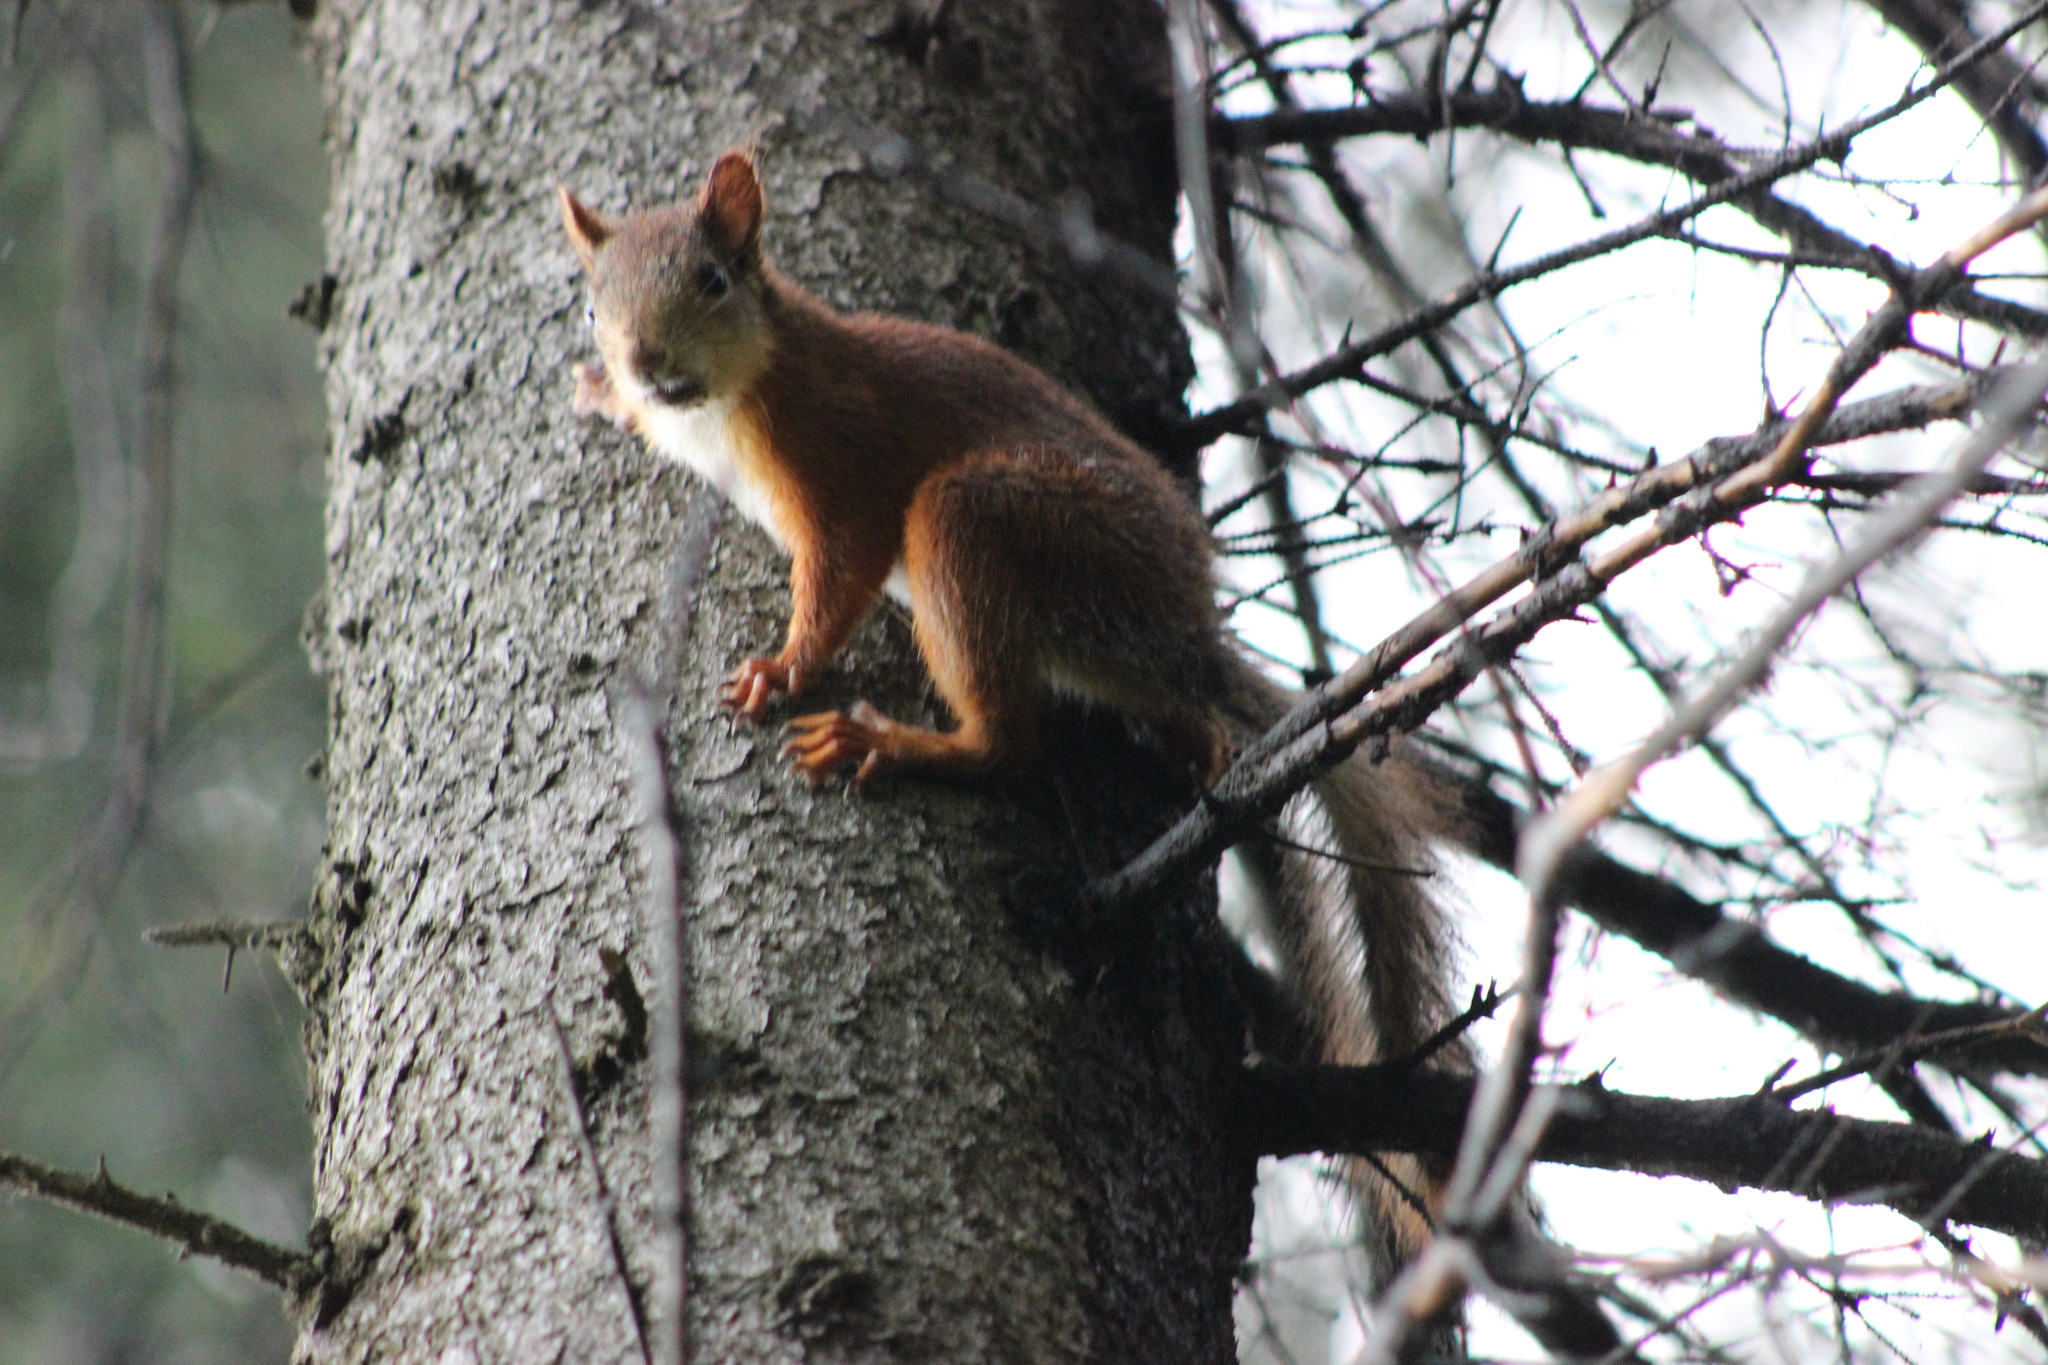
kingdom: Animalia
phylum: Chordata
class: Mammalia
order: Rodentia
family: Sciuridae
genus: Sciurus
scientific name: Sciurus vulgaris
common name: Eurasian red squirrel
